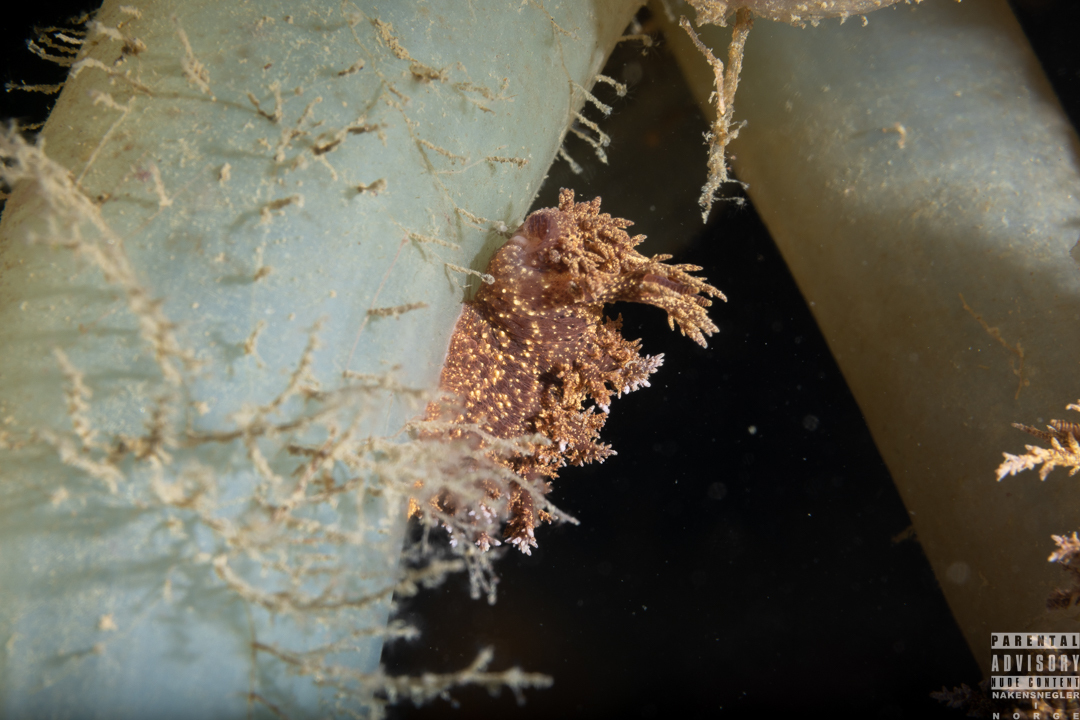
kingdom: Animalia
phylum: Mollusca
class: Gastropoda
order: Nudibranchia
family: Dendronotidae
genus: Dendronotus
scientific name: Dendronotus europaeus
